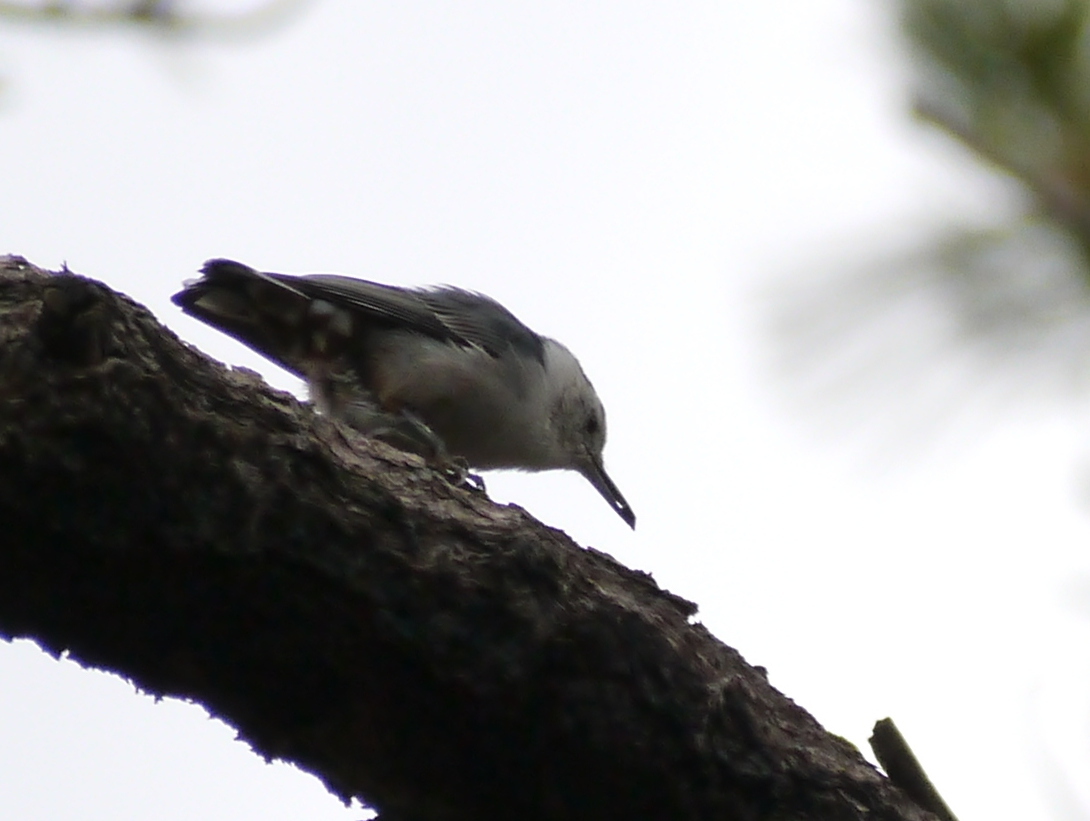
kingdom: Animalia
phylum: Chordata
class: Aves
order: Passeriformes
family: Sittidae
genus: Sitta
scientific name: Sitta carolinensis
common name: White-breasted nuthatch
